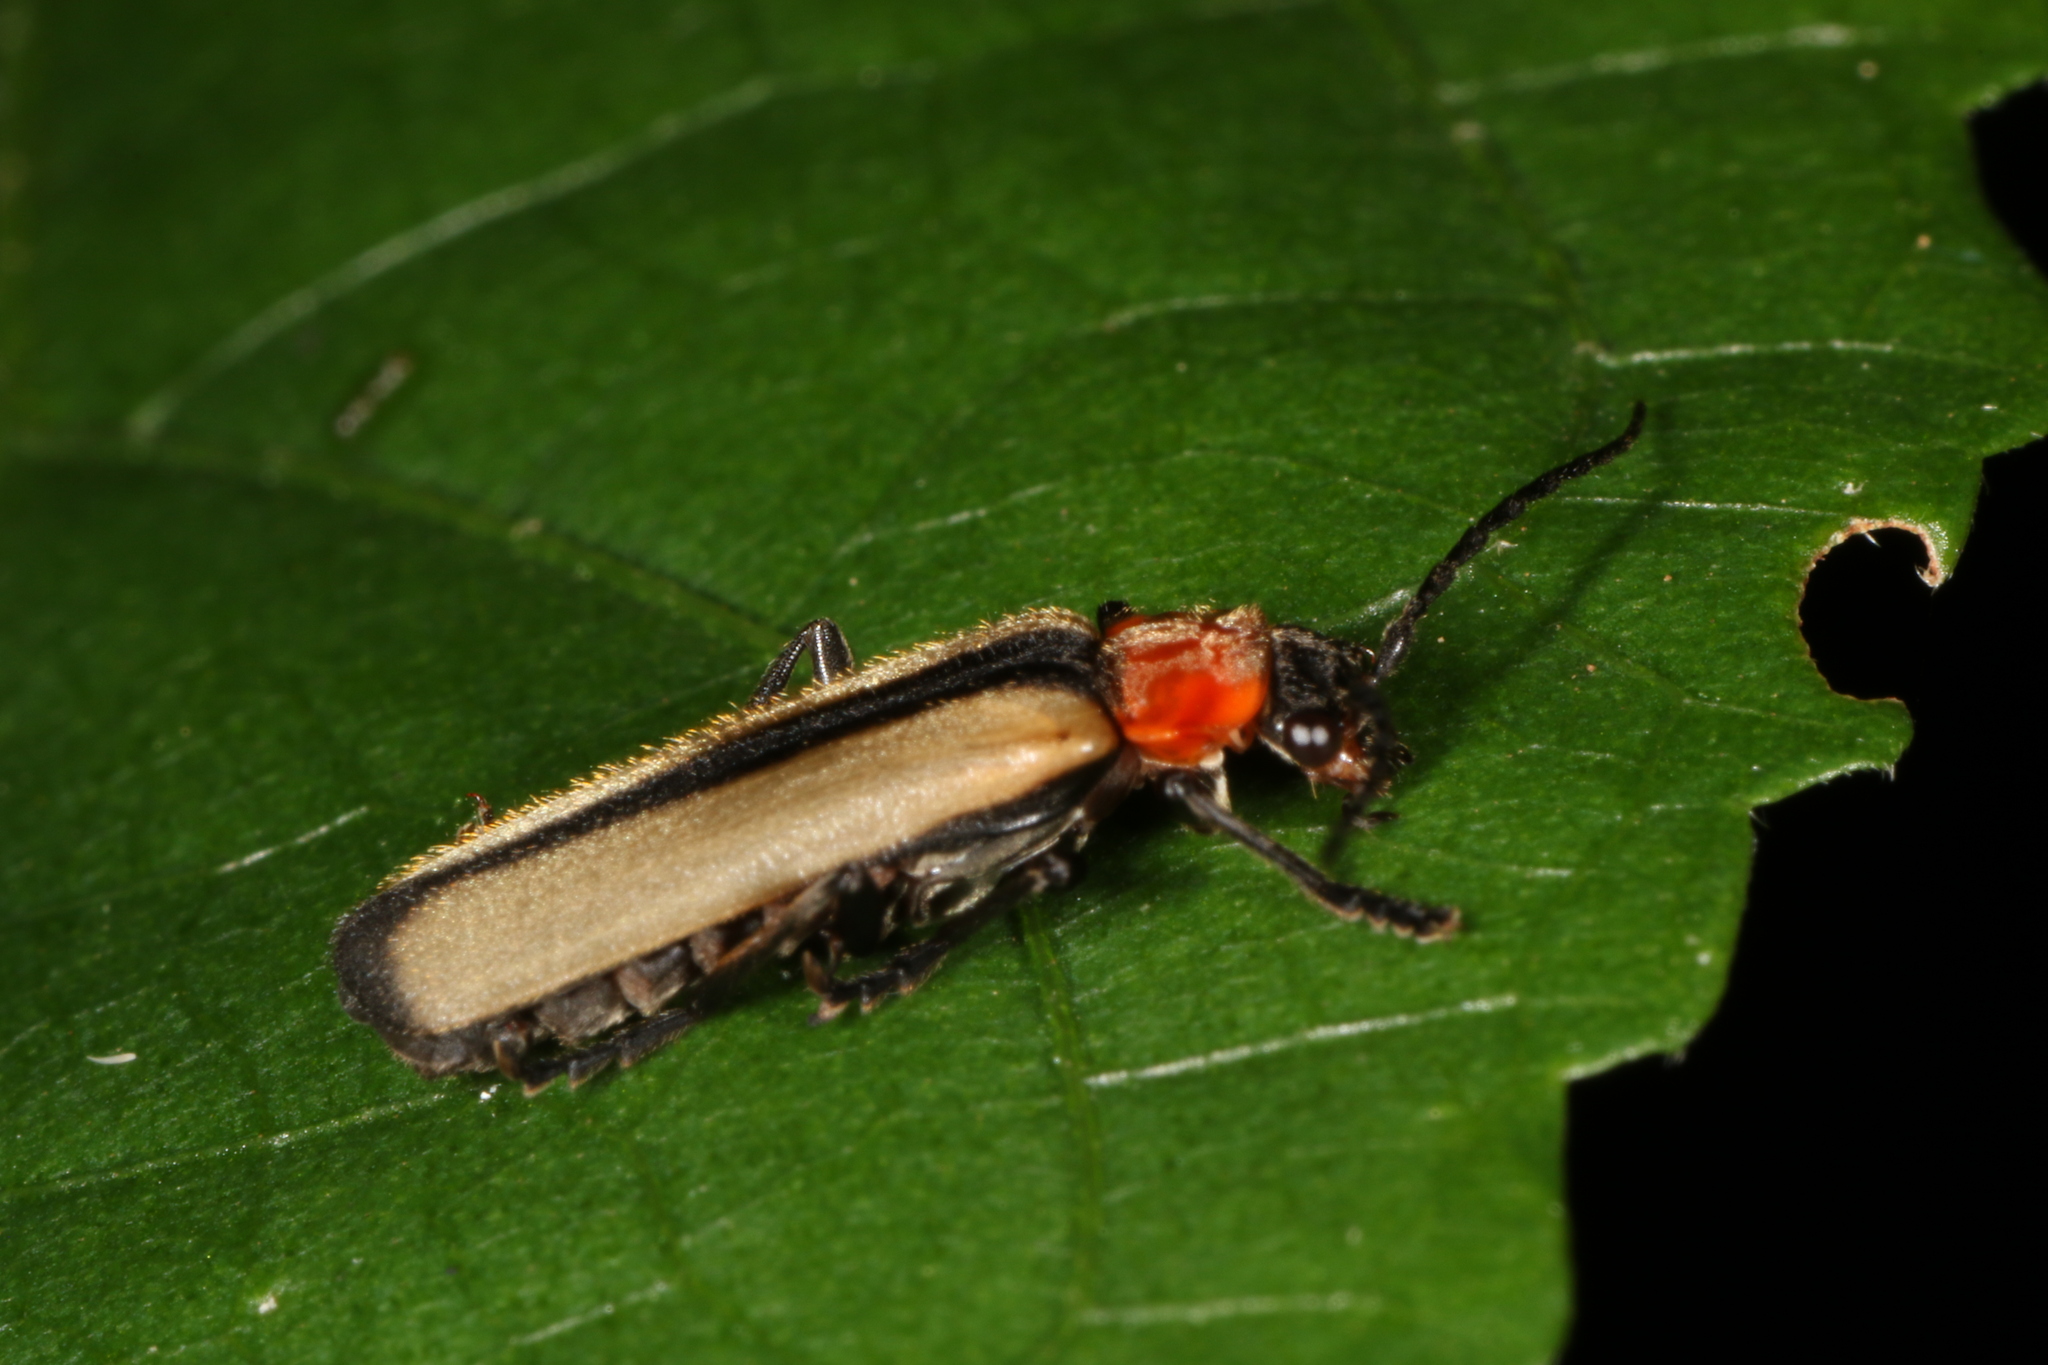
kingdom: Animalia
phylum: Arthropoda
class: Insecta
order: Coleoptera
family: Cantharidae
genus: Discodon
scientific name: Discodon
